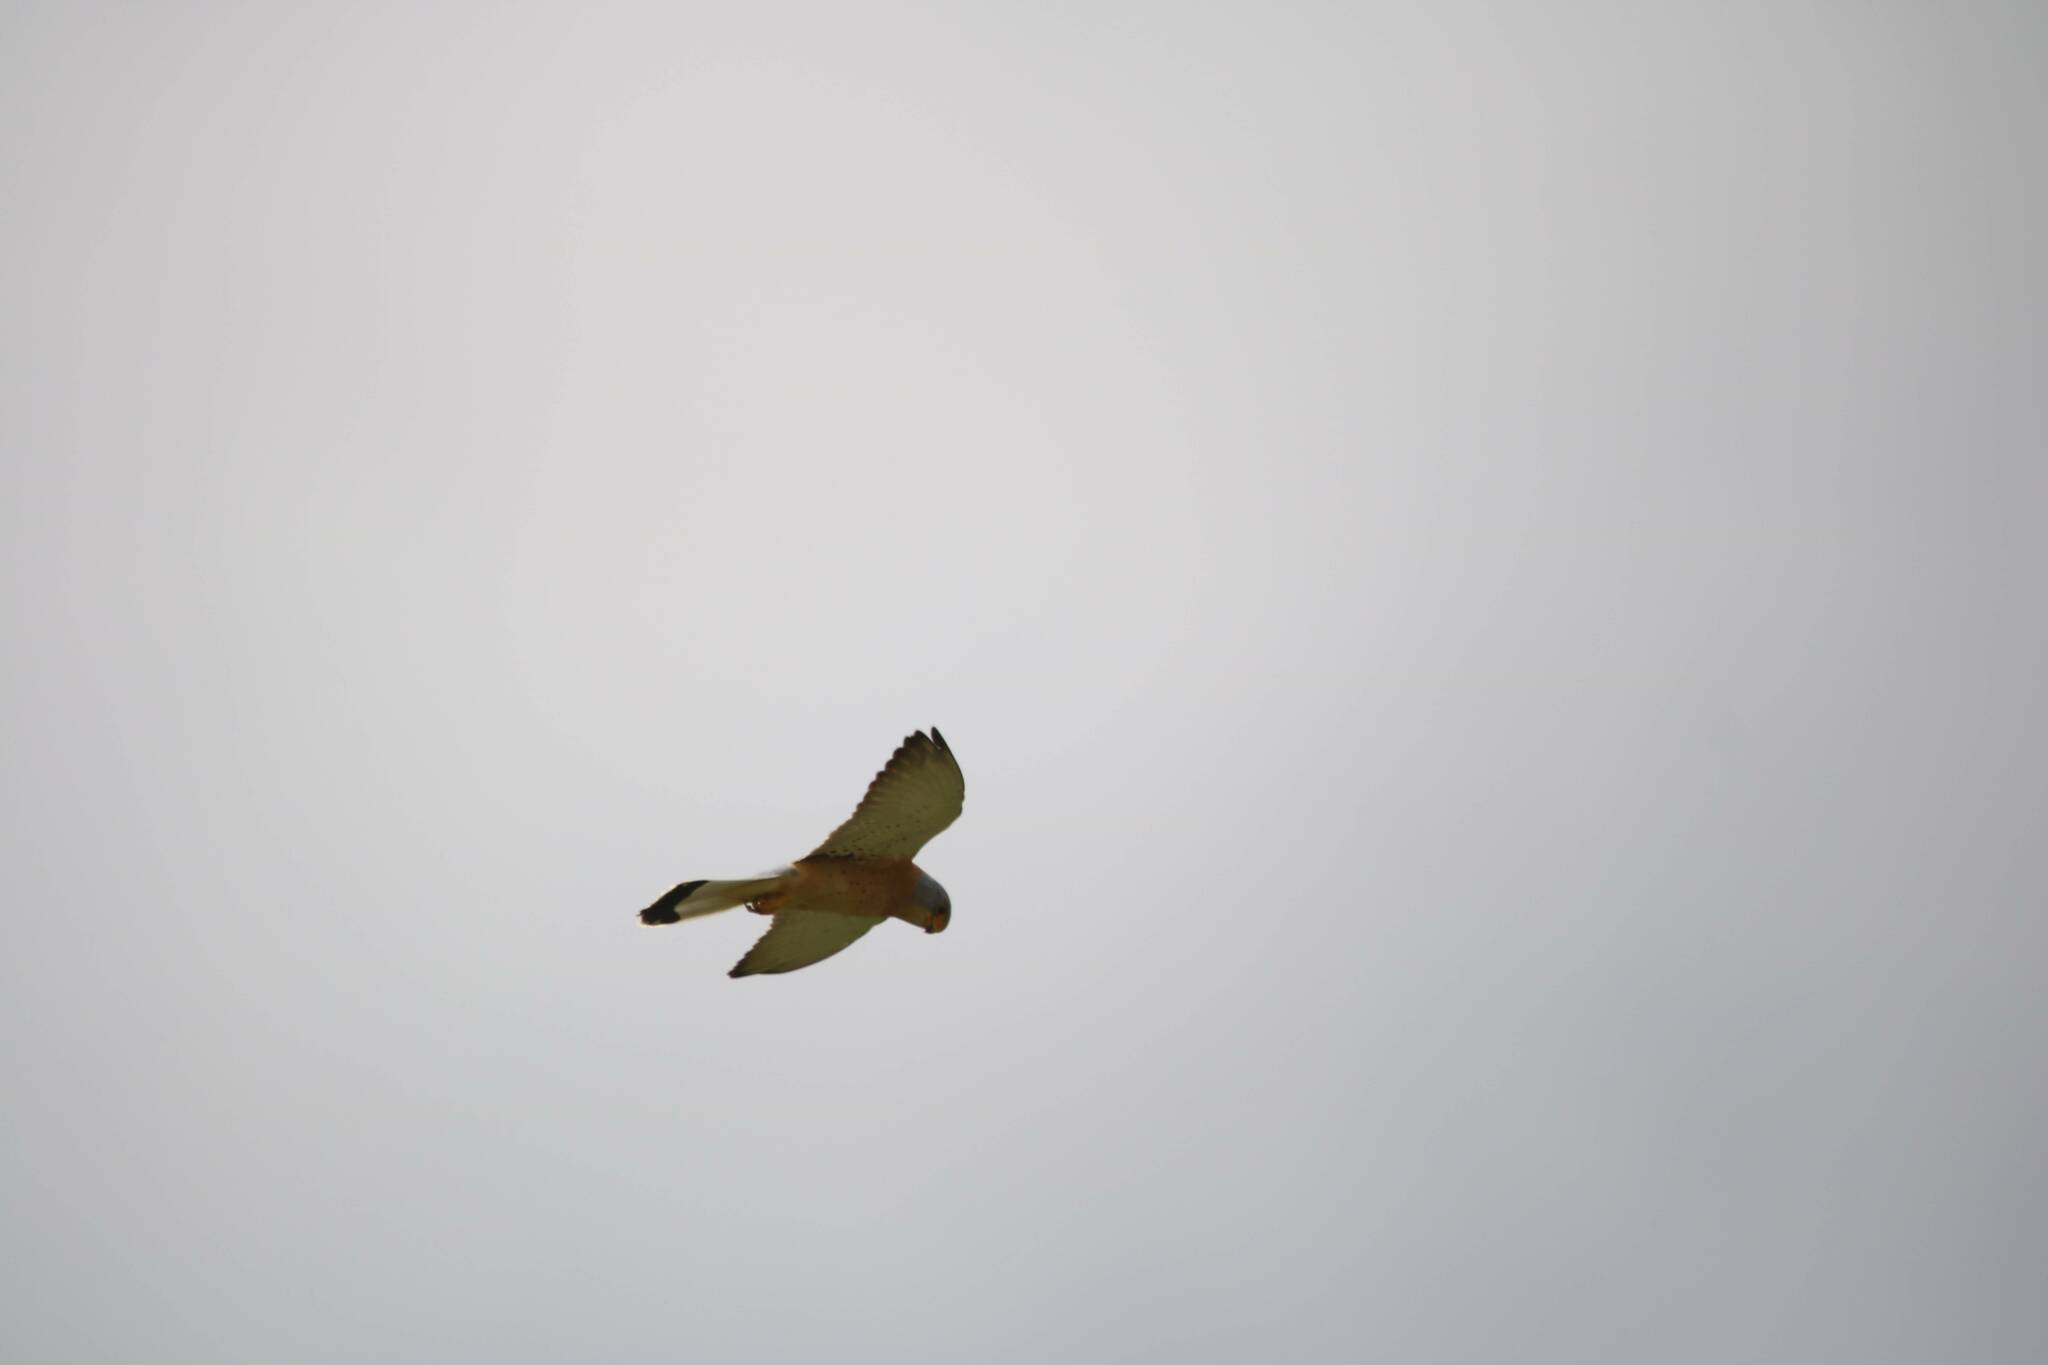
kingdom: Animalia
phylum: Chordata
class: Aves
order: Falconiformes
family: Falconidae
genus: Falco
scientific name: Falco naumanni
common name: Lesser kestrel
